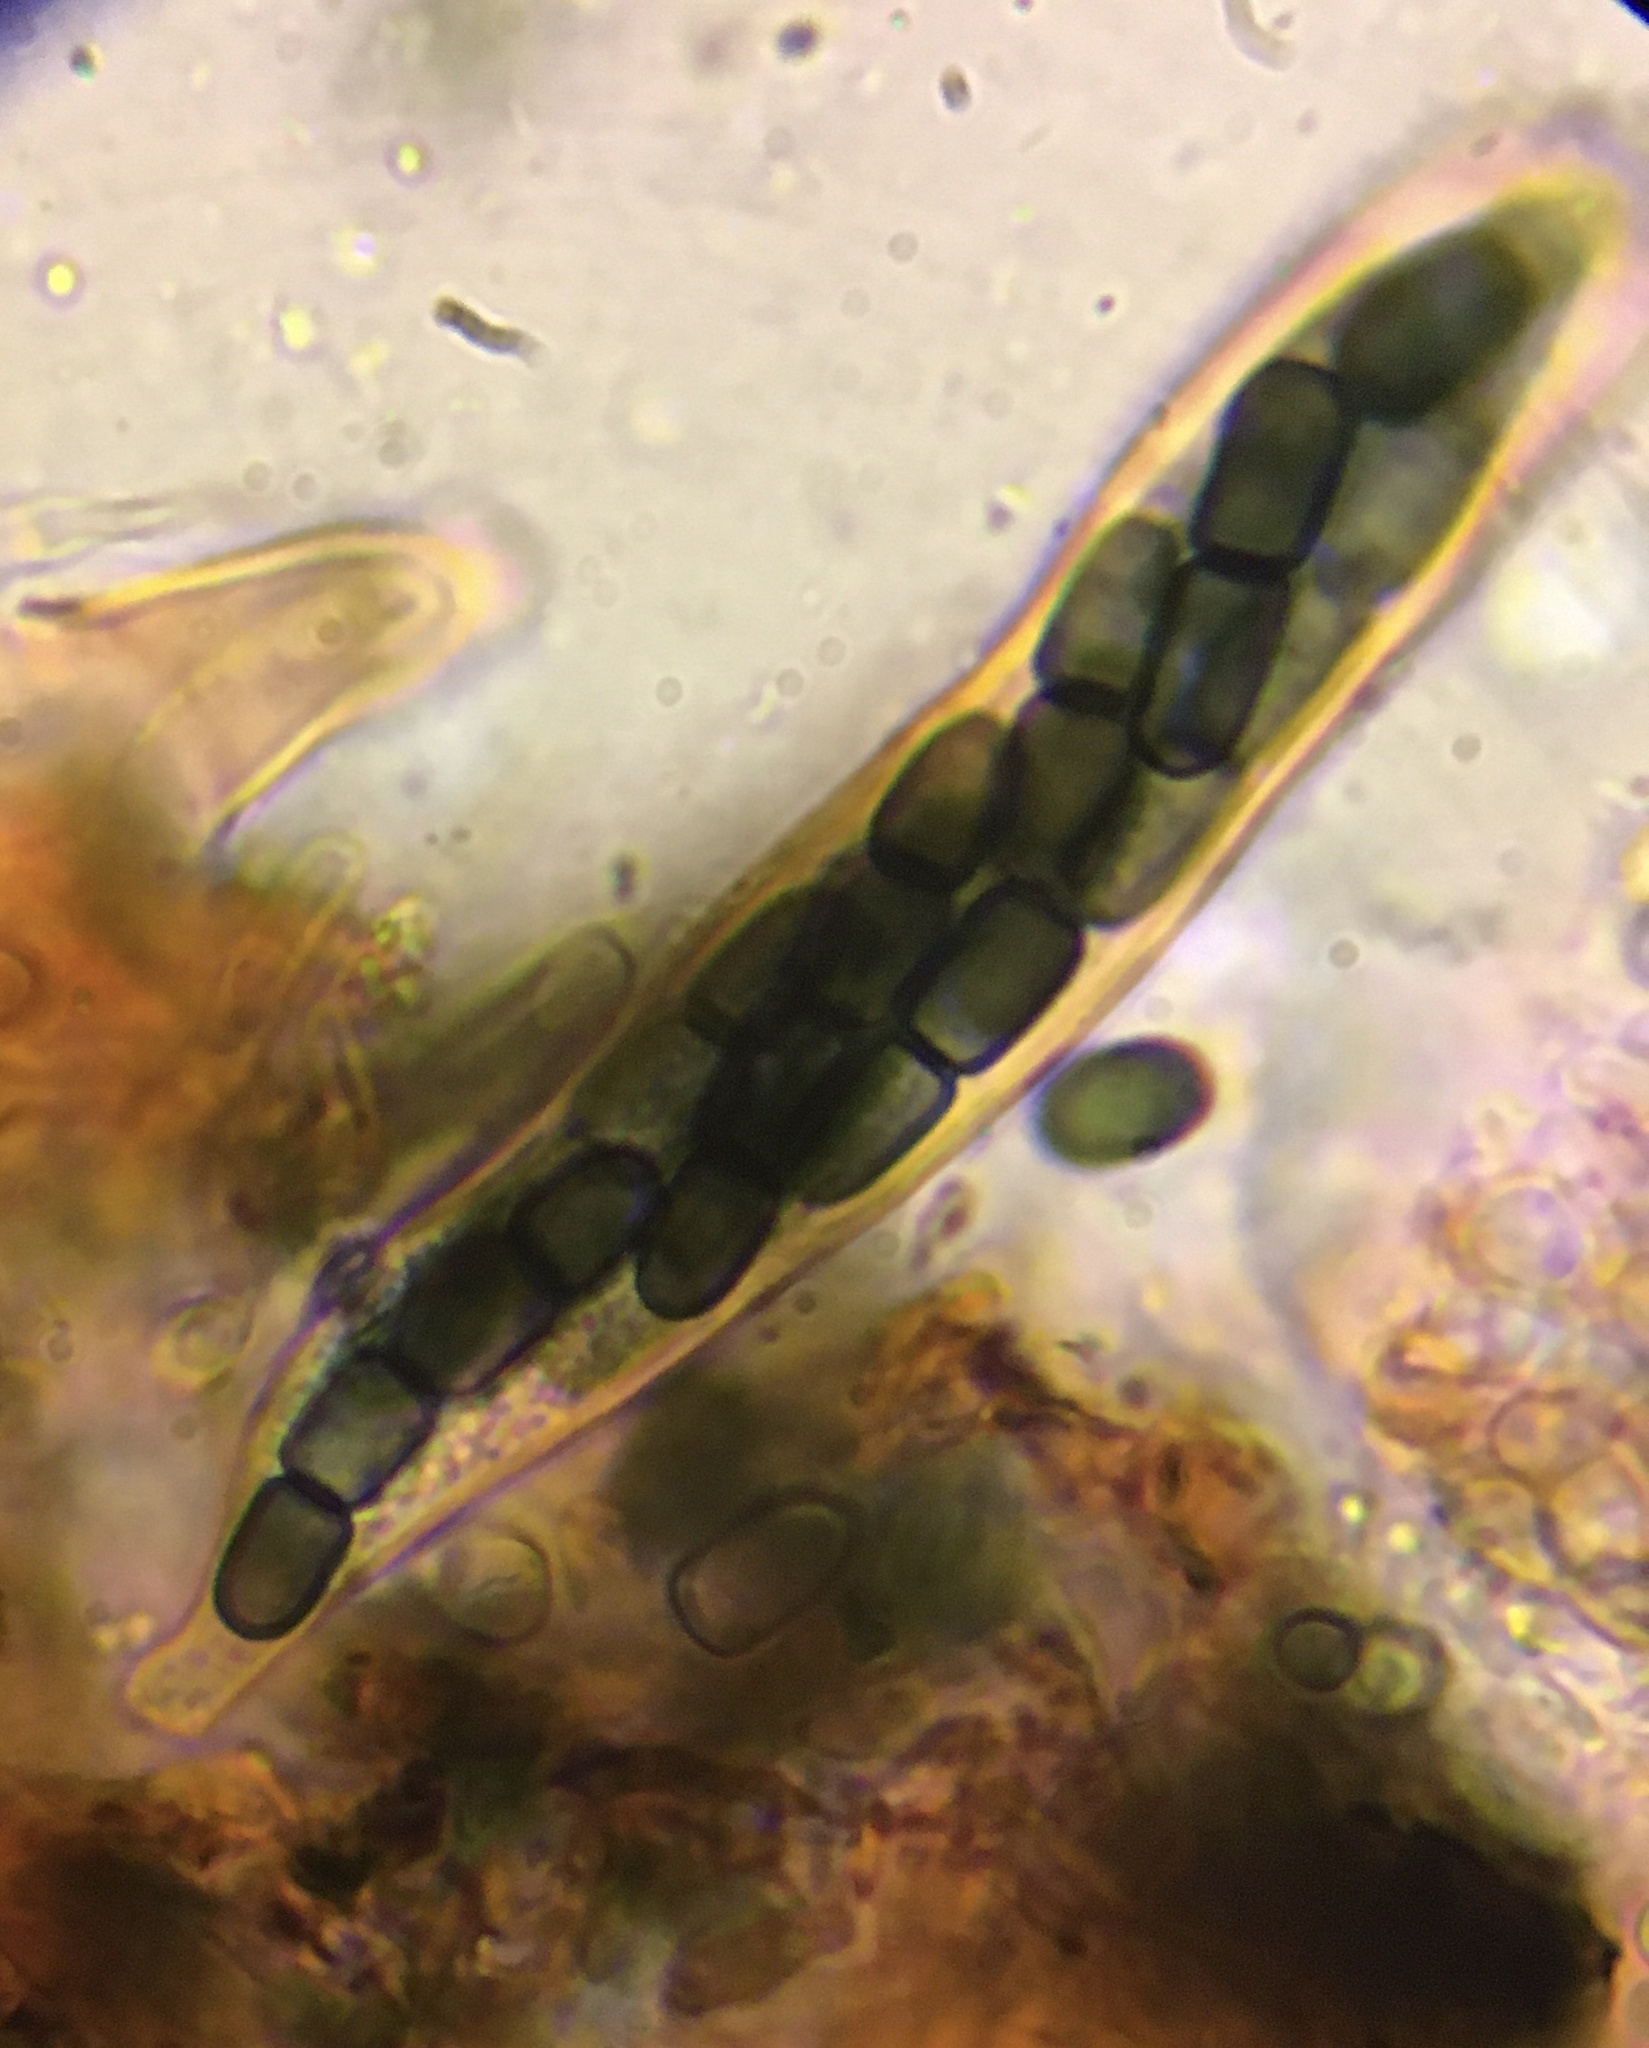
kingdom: Fungi
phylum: Ascomycota
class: Dothideomycetes
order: Pleosporales
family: Sporormiaceae
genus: Sporormiella
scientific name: Sporormiella minima
